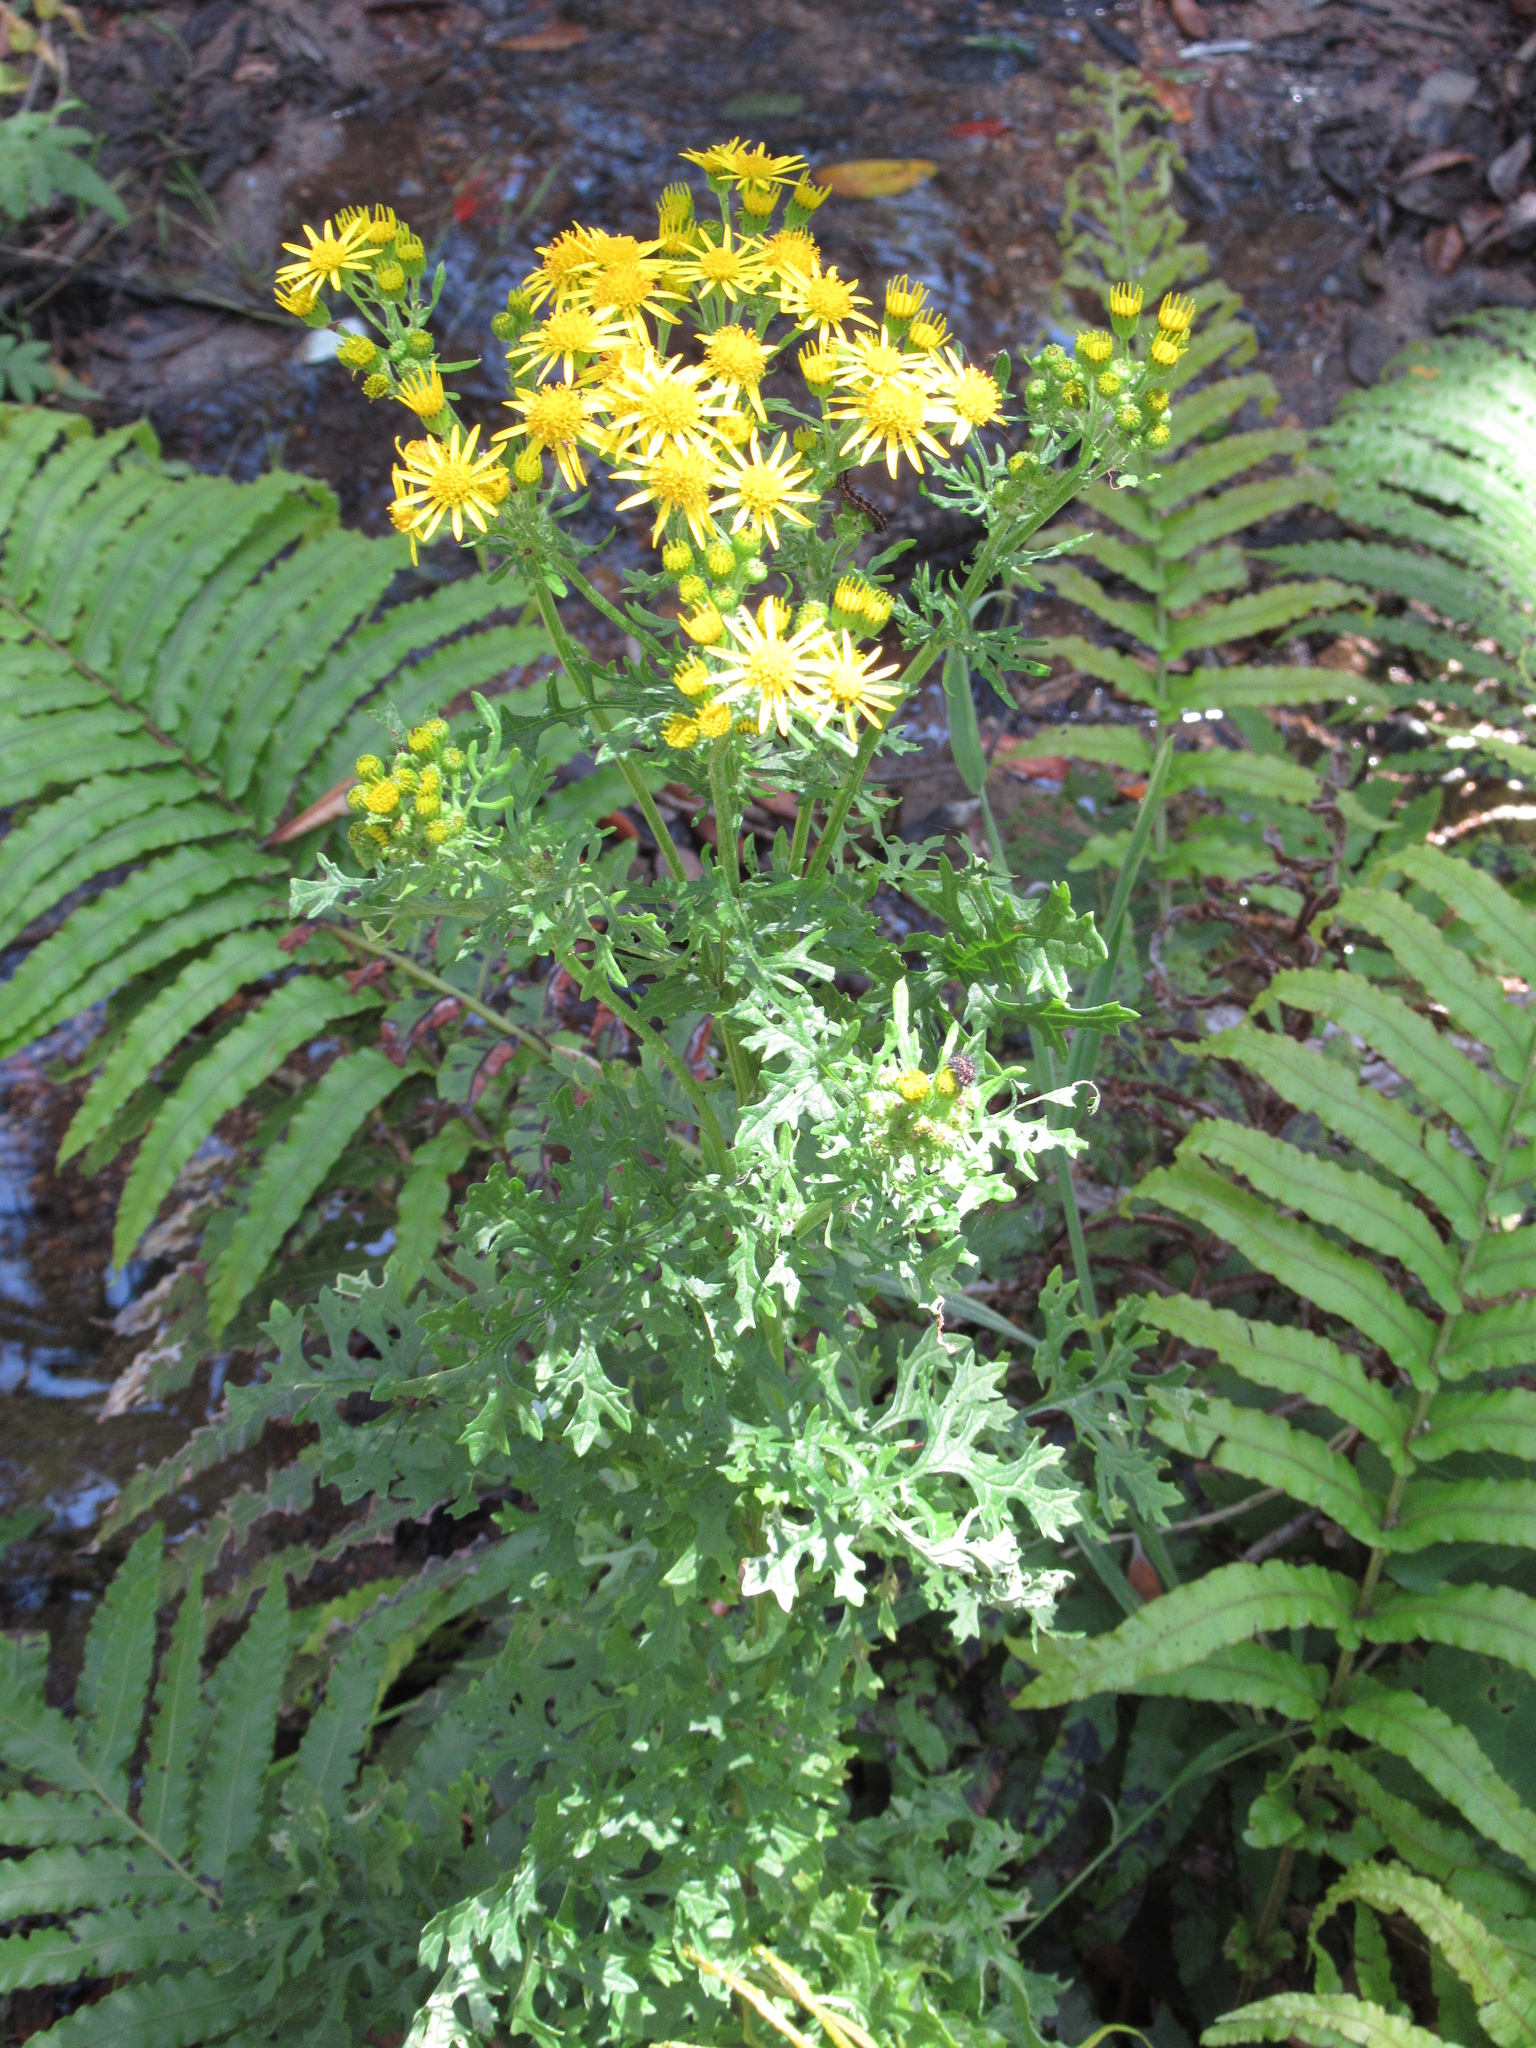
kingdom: Plantae
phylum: Tracheophyta
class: Magnoliopsida
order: Asterales
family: Asteraceae
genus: Jacobaea
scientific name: Jacobaea vulgaris
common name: Stinking willie
